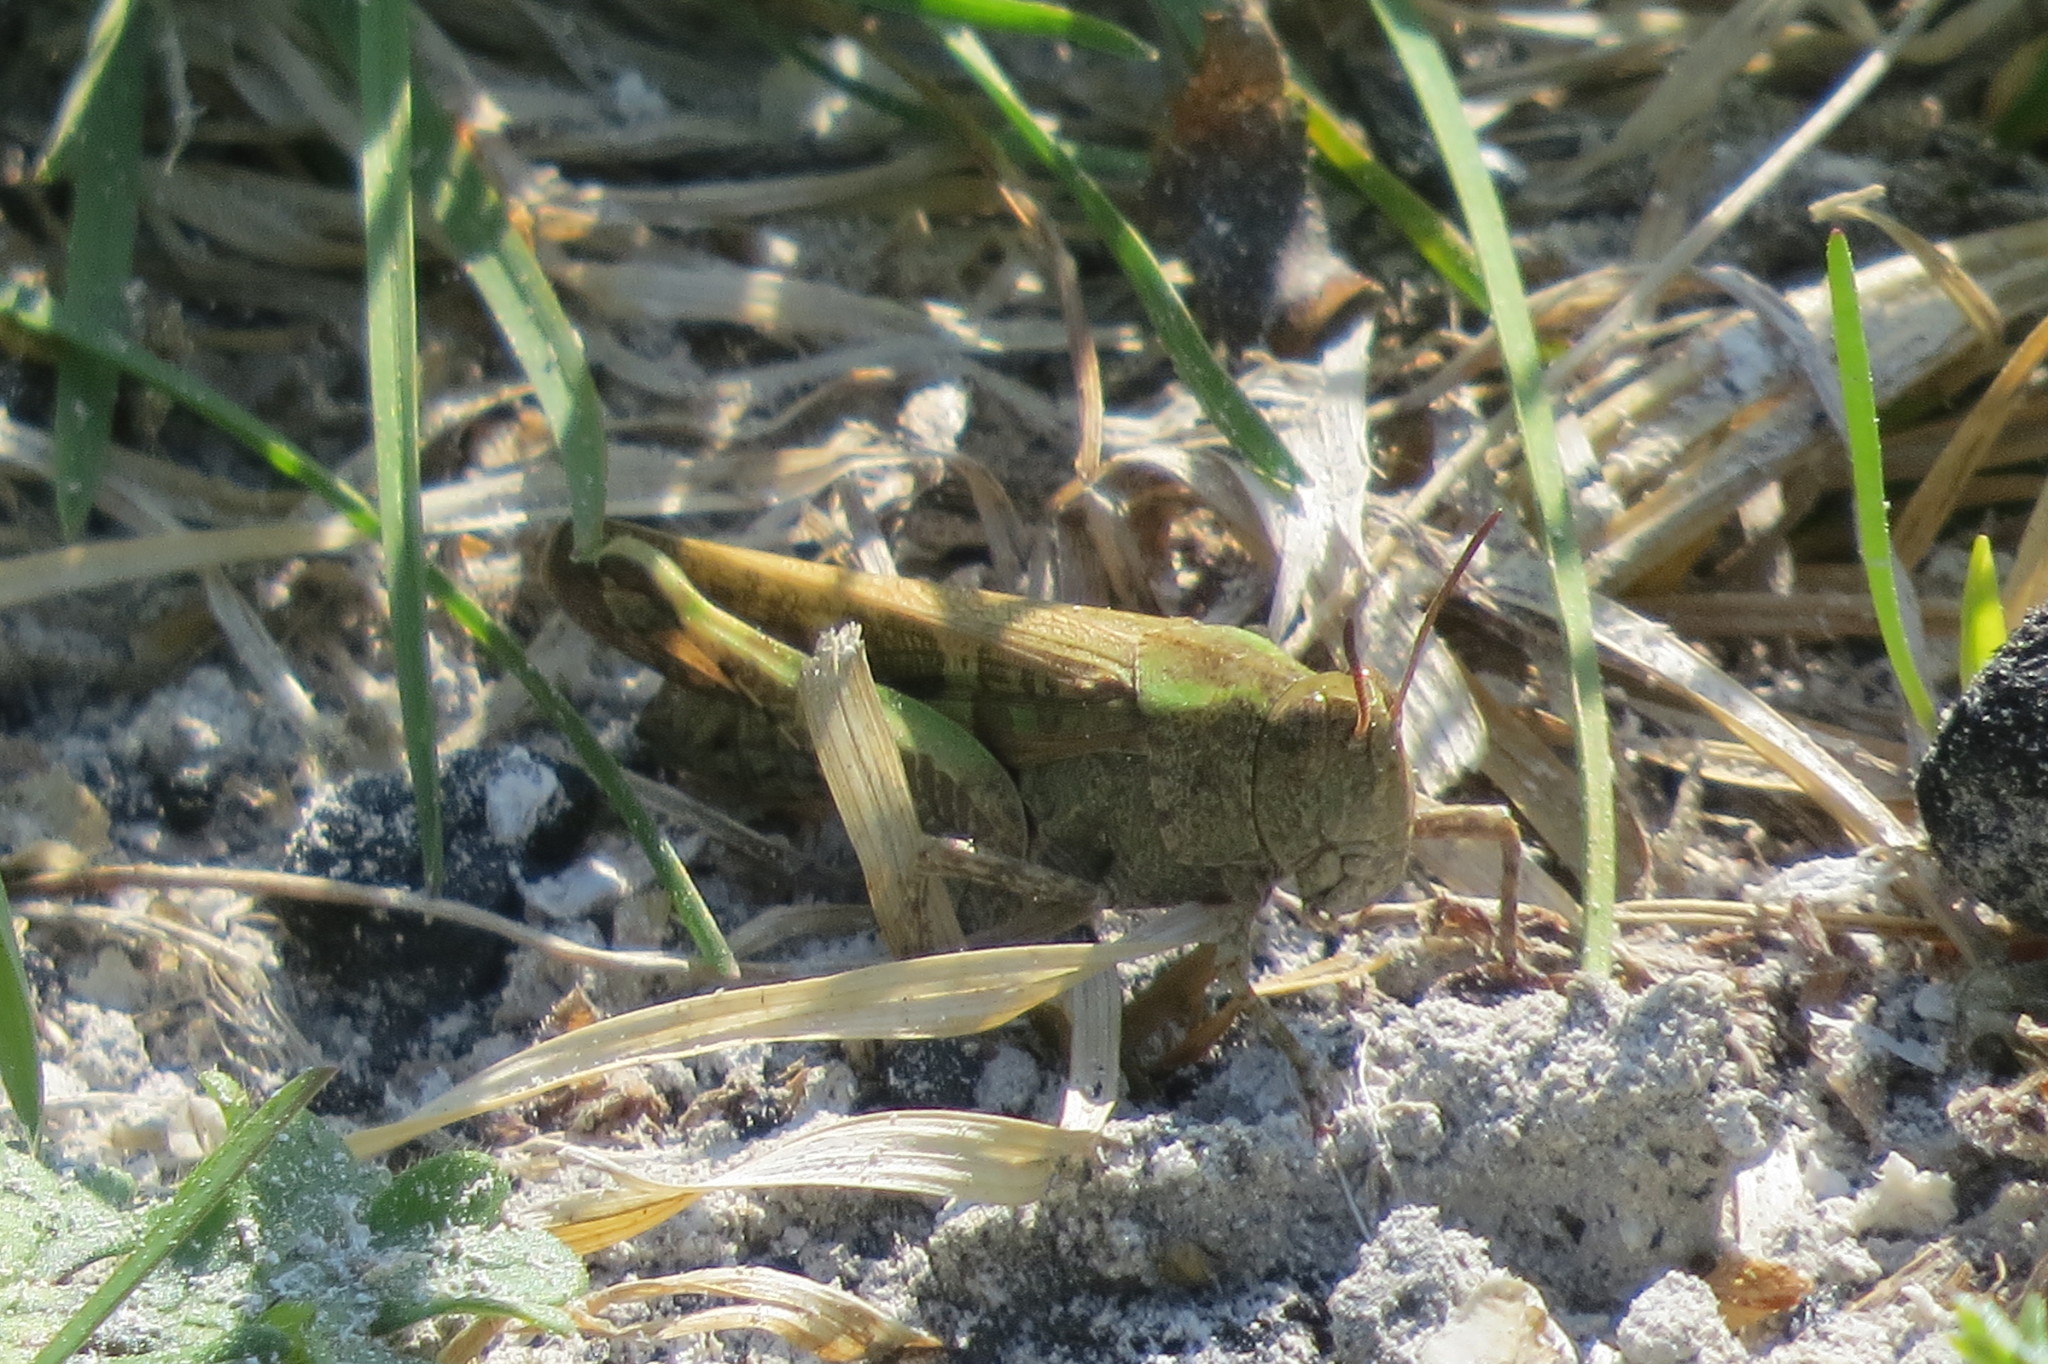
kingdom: Animalia
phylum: Arthropoda
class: Insecta
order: Orthoptera
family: Acrididae
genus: Aiolopus
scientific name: Aiolopus strepens
